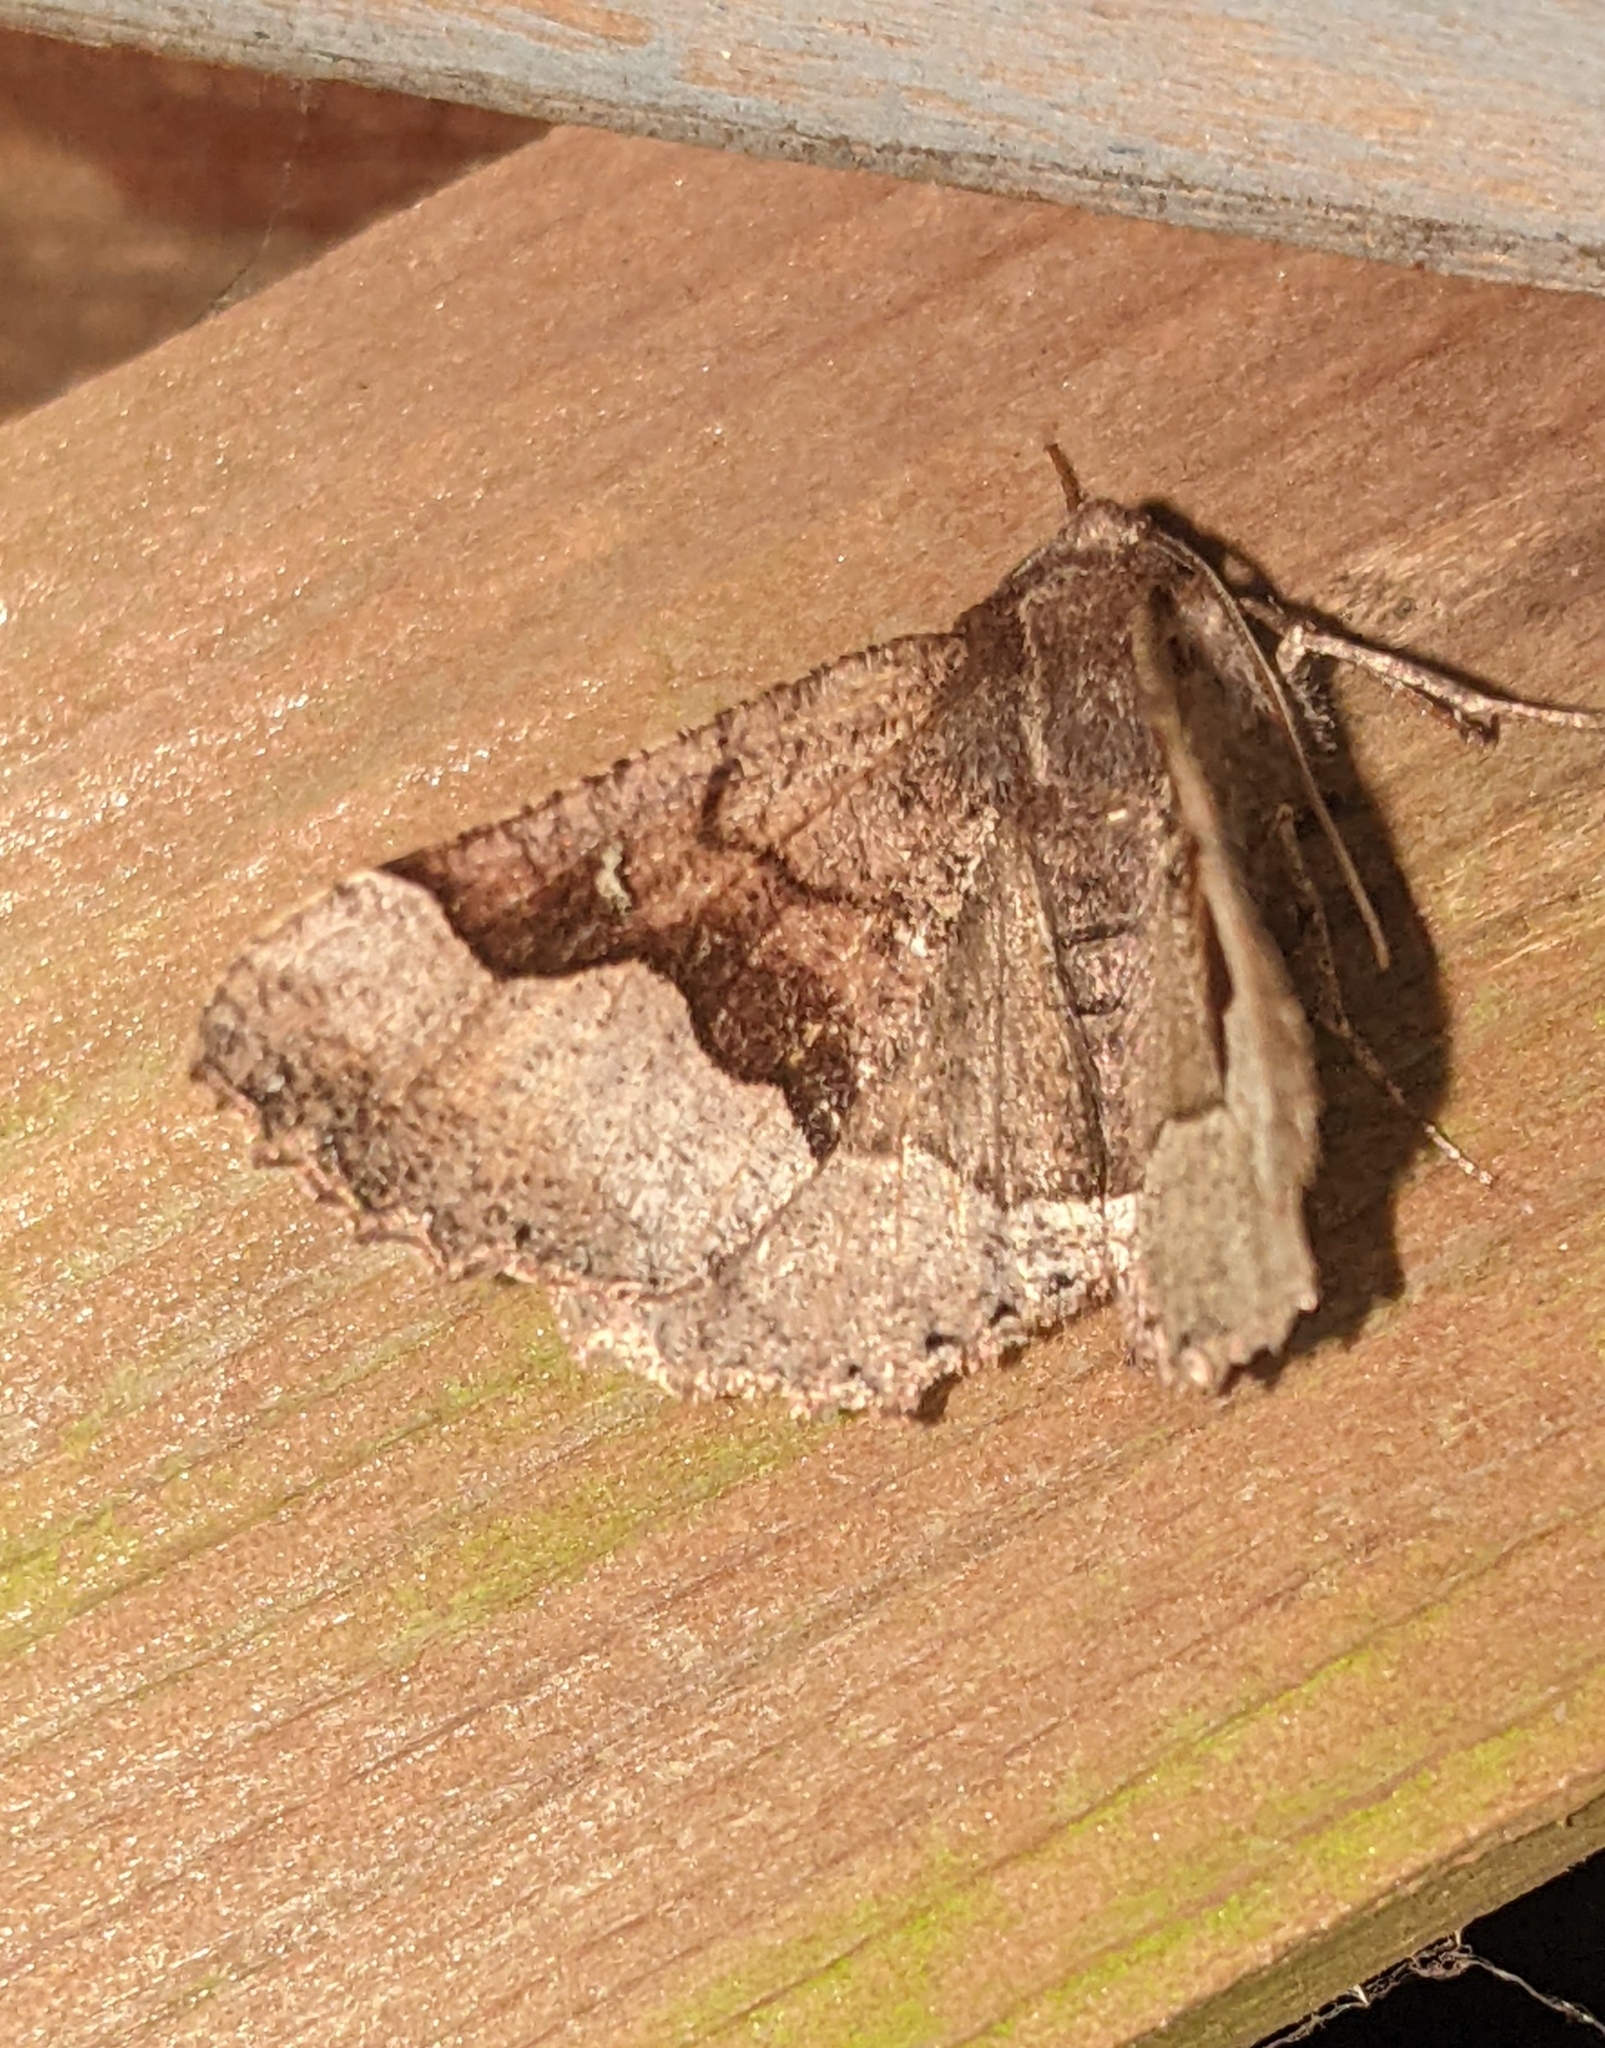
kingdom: Animalia
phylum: Arthropoda
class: Insecta
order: Lepidoptera
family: Geometridae
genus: Pero
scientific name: Pero behrensaria
